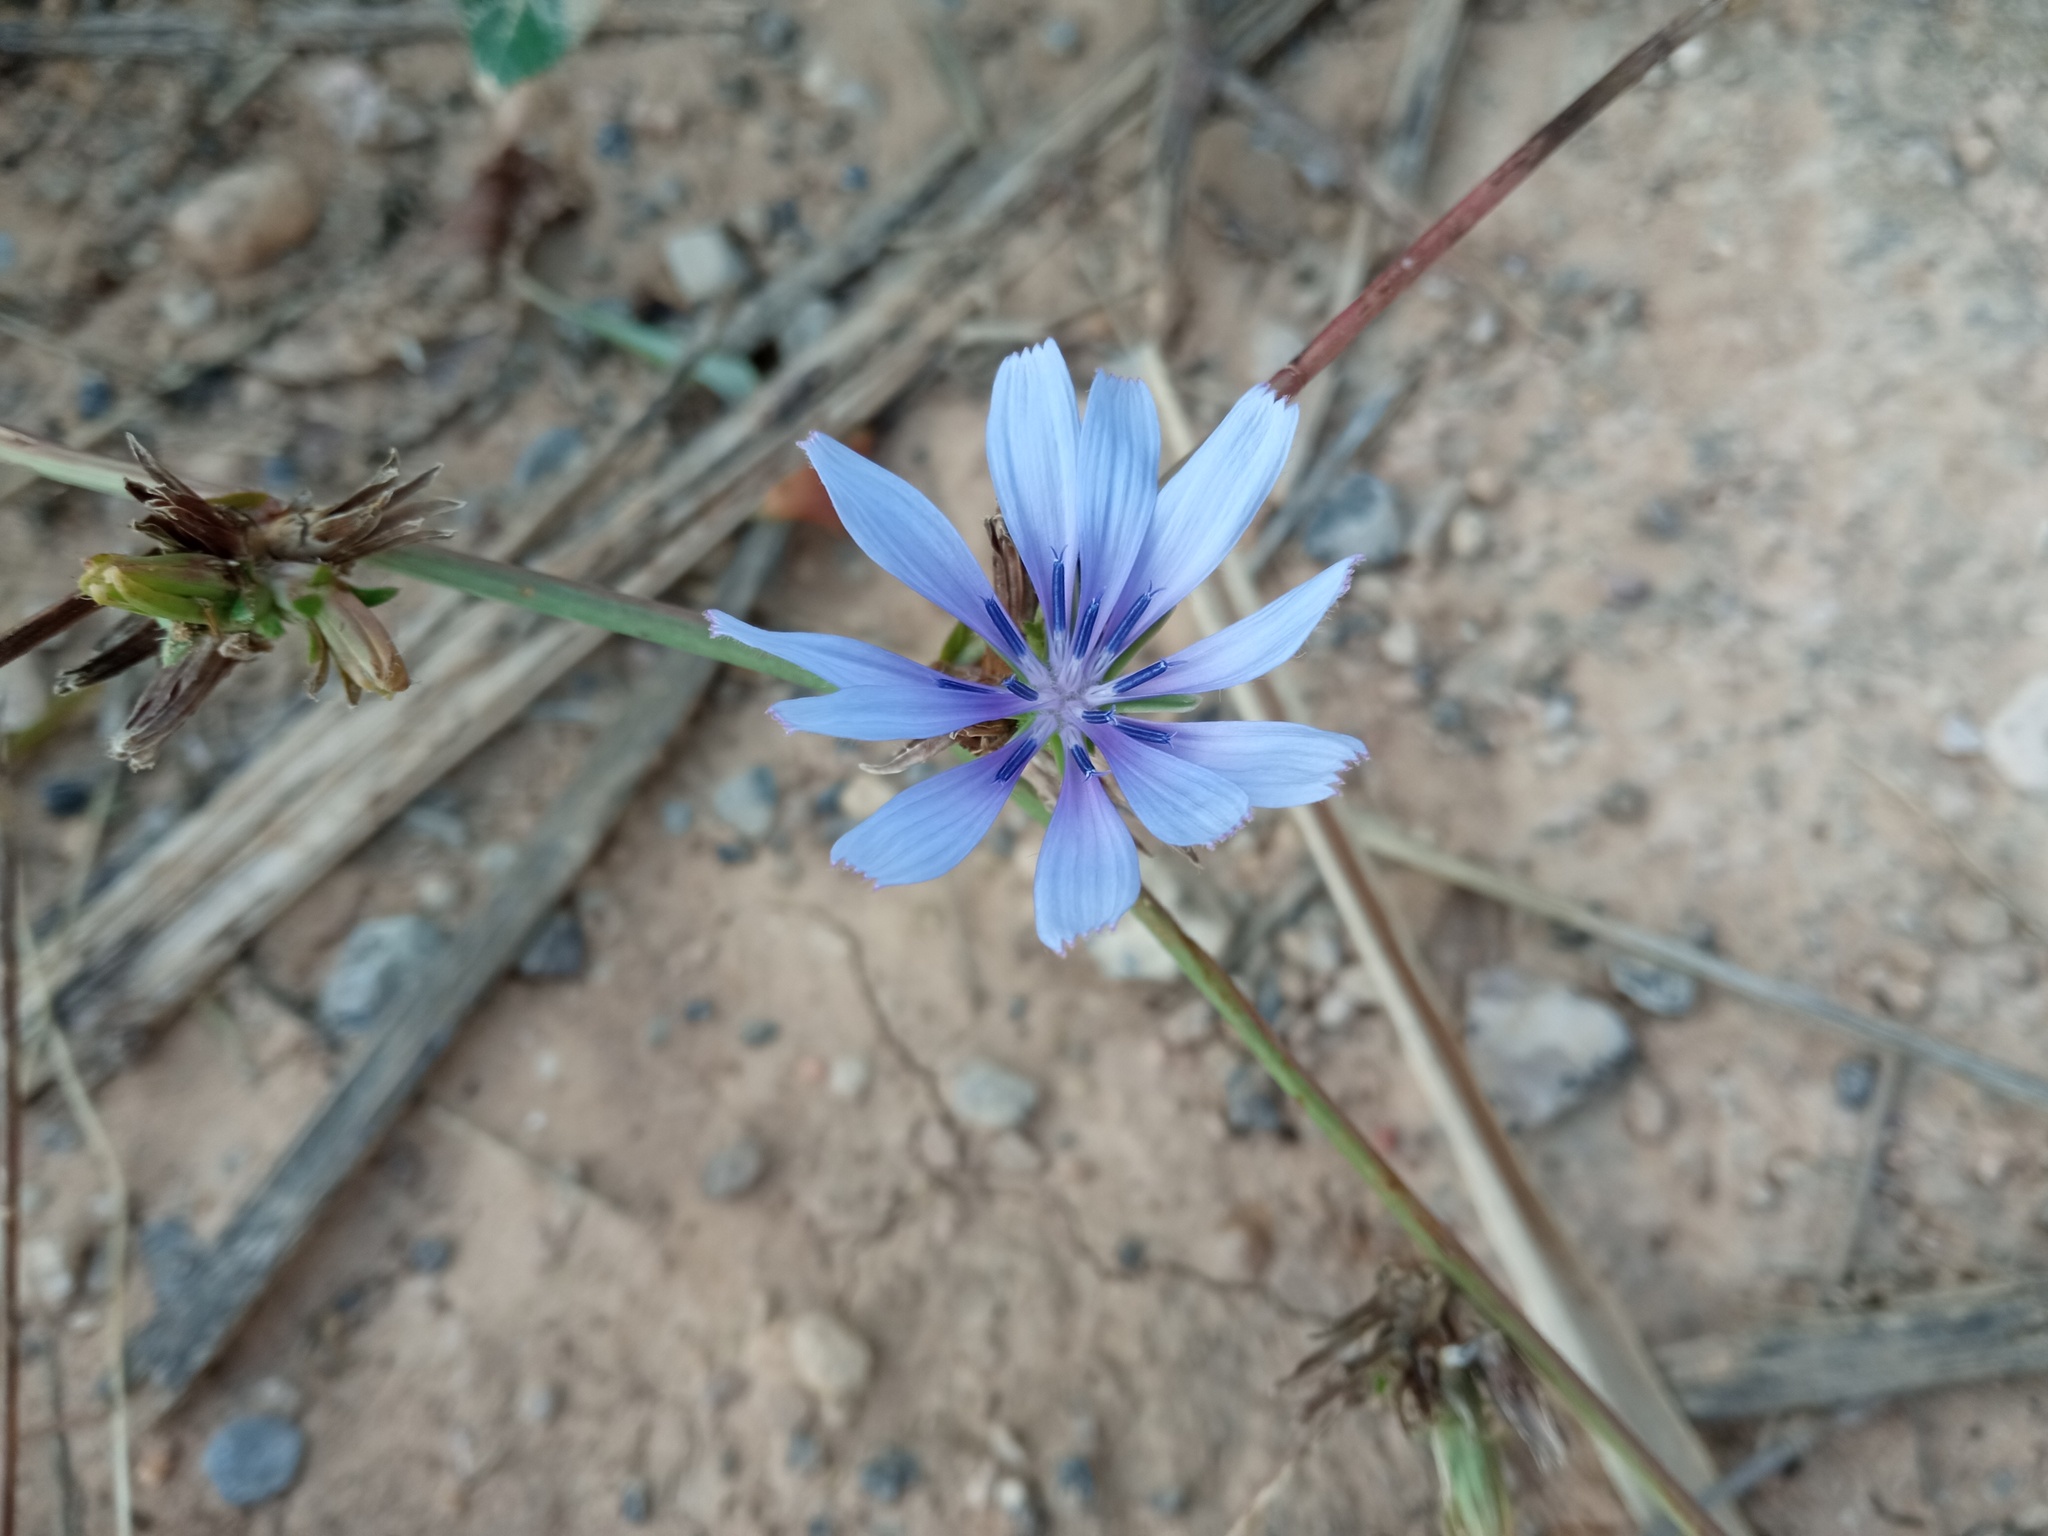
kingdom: Plantae
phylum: Tracheophyta
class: Magnoliopsida
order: Asterales
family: Asteraceae
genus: Cichorium
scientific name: Cichorium intybus
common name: Chicory
